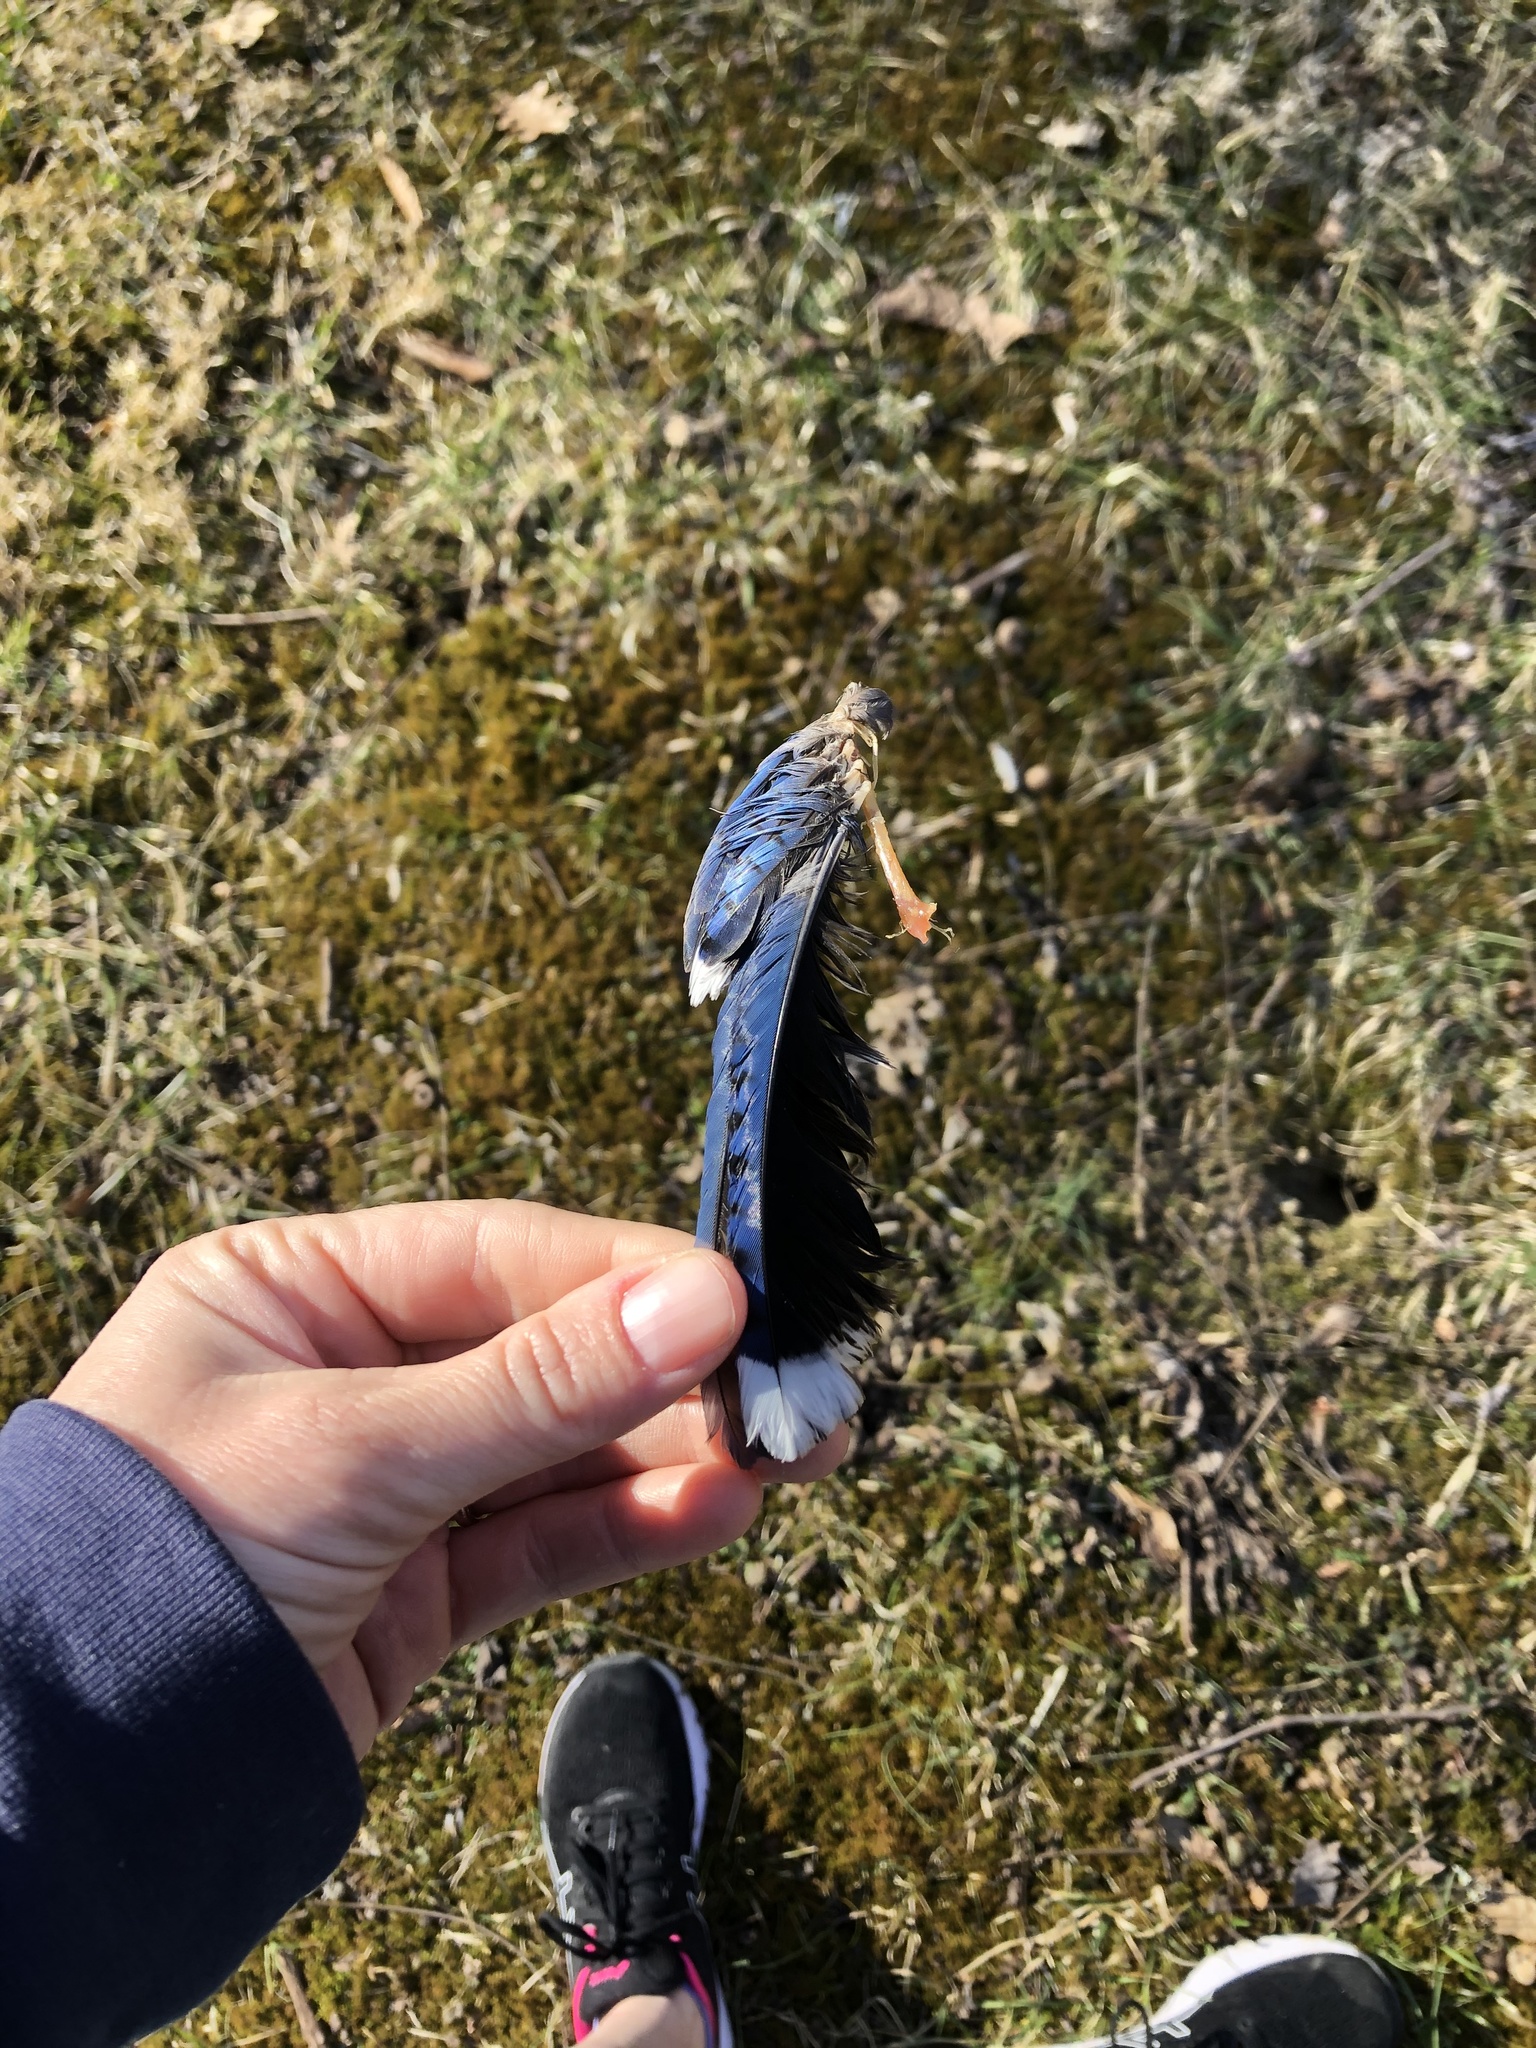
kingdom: Animalia
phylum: Chordata
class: Aves
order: Passeriformes
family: Corvidae
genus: Cyanocitta
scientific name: Cyanocitta cristata
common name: Blue jay
